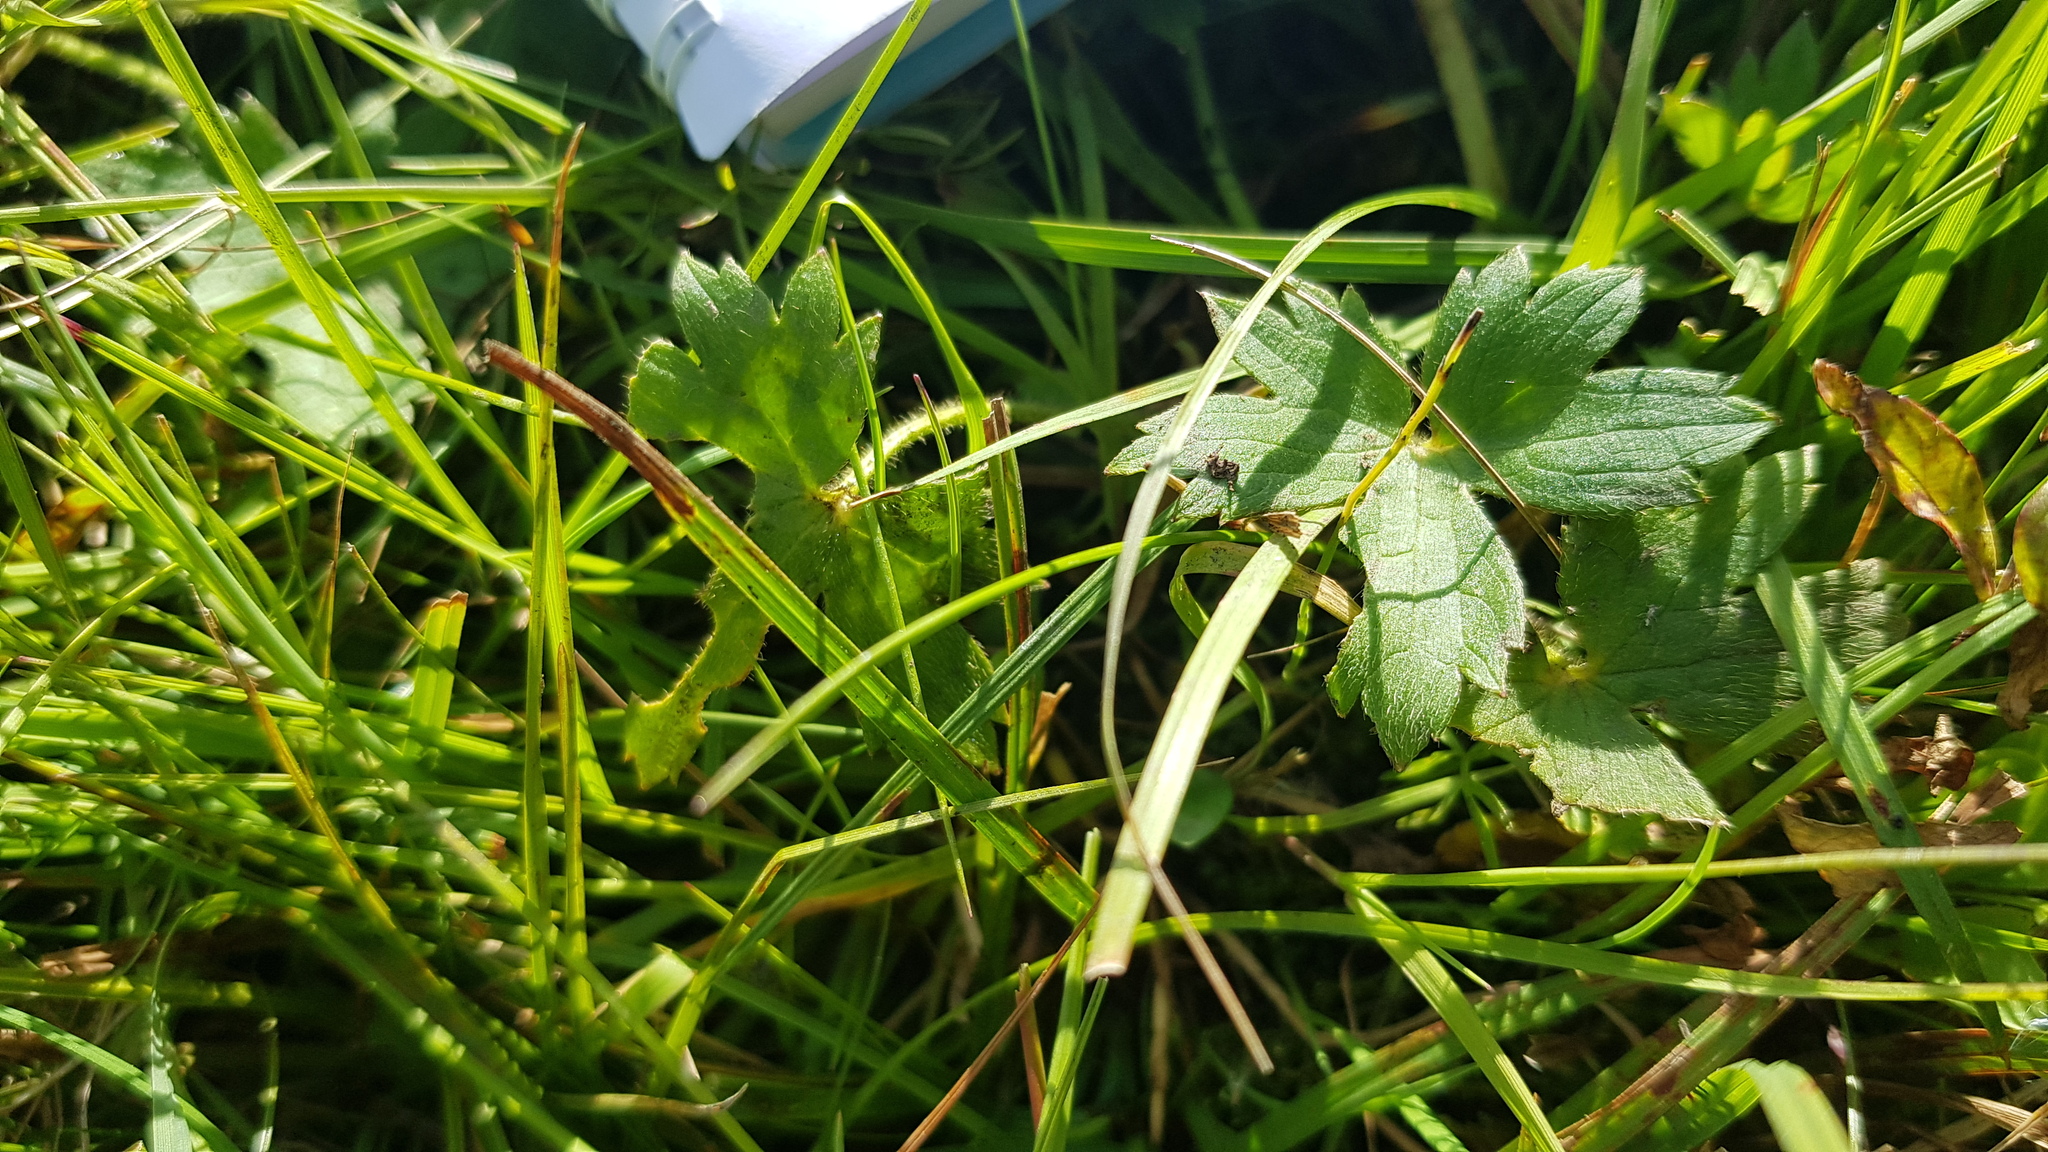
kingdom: Plantae
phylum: Tracheophyta
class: Magnoliopsida
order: Ranunculales
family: Ranunculaceae
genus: Ranunculus
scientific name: Ranunculus repens
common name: Creeping buttercup
